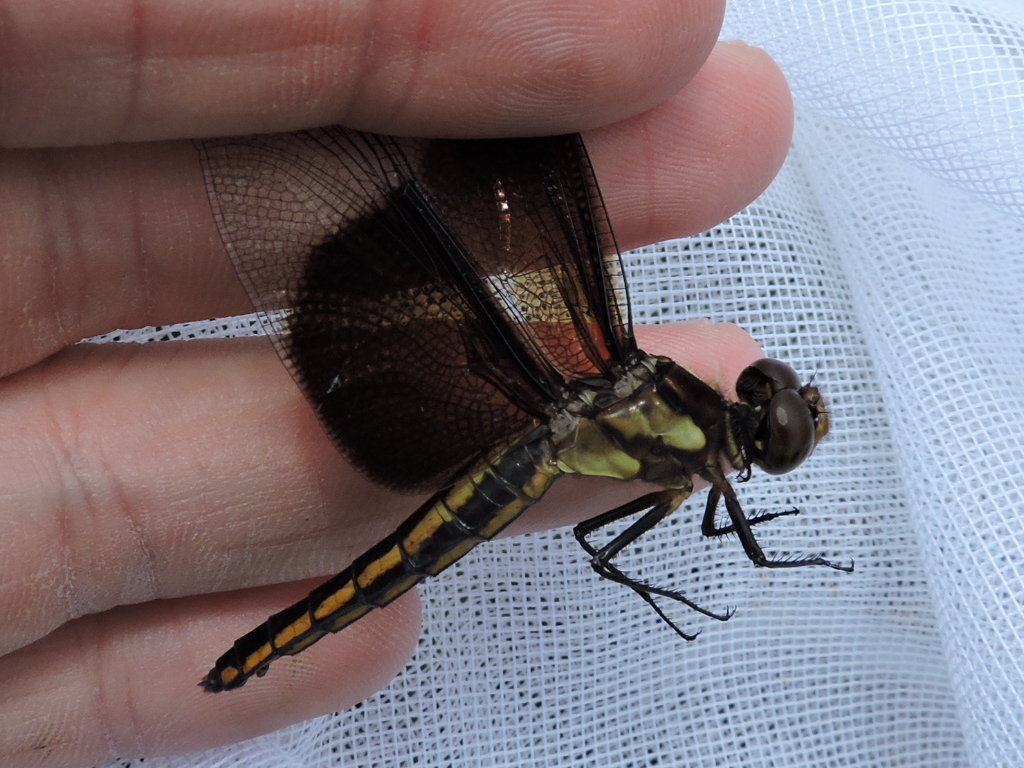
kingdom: Animalia
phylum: Arthropoda
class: Insecta
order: Odonata
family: Libellulidae
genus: Libellula
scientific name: Libellula luctuosa
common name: Widow skimmer
